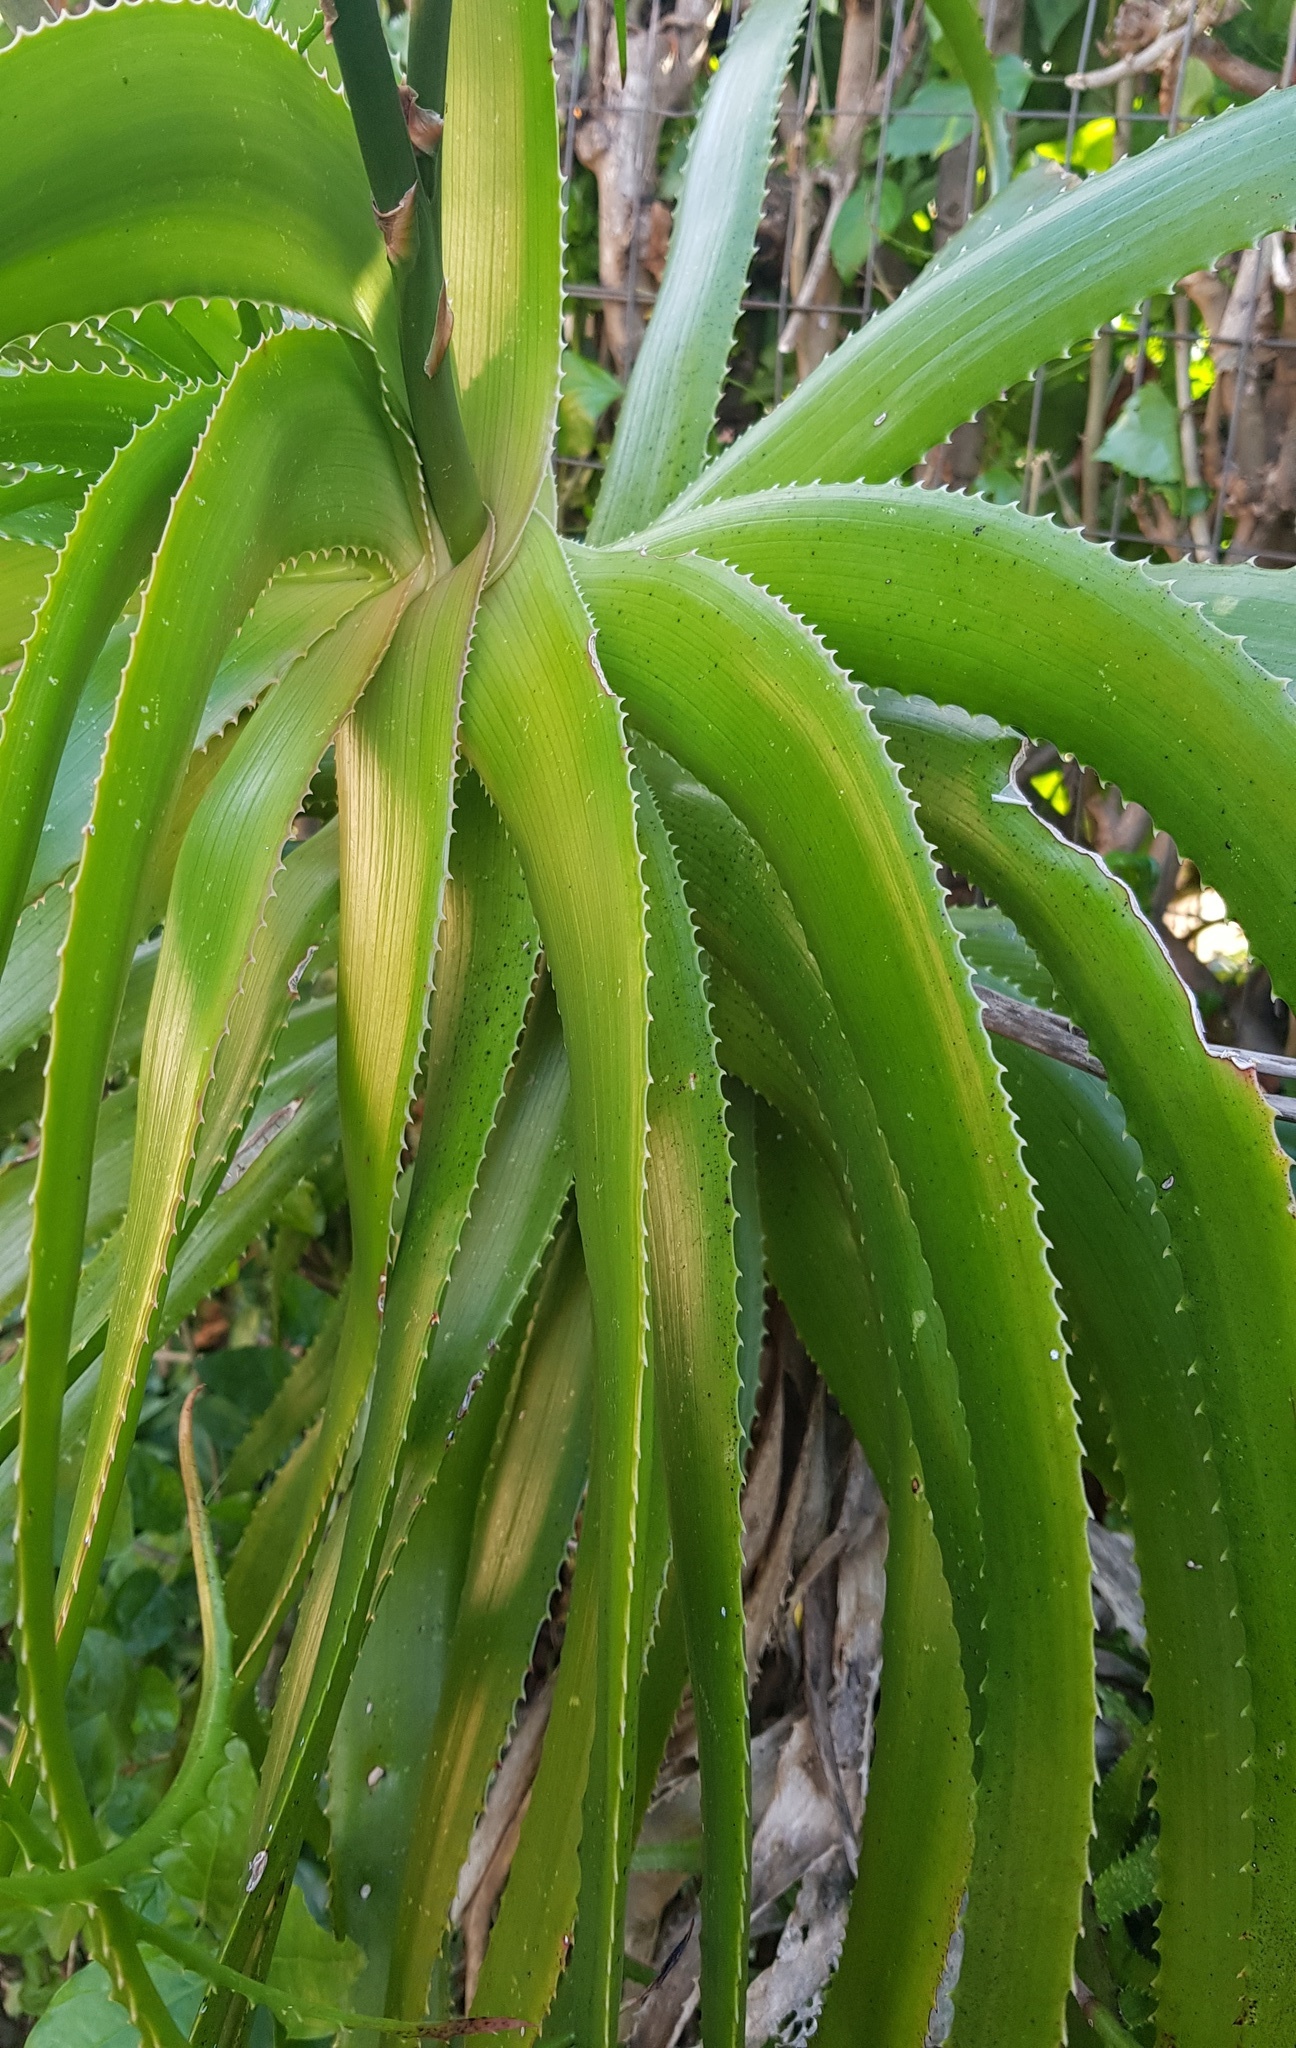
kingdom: Plantae
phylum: Tracheophyta
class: Liliopsida
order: Asparagales
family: Asphodelaceae
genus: Aloe
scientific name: Aloe arborescens
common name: Candelabra aloe
